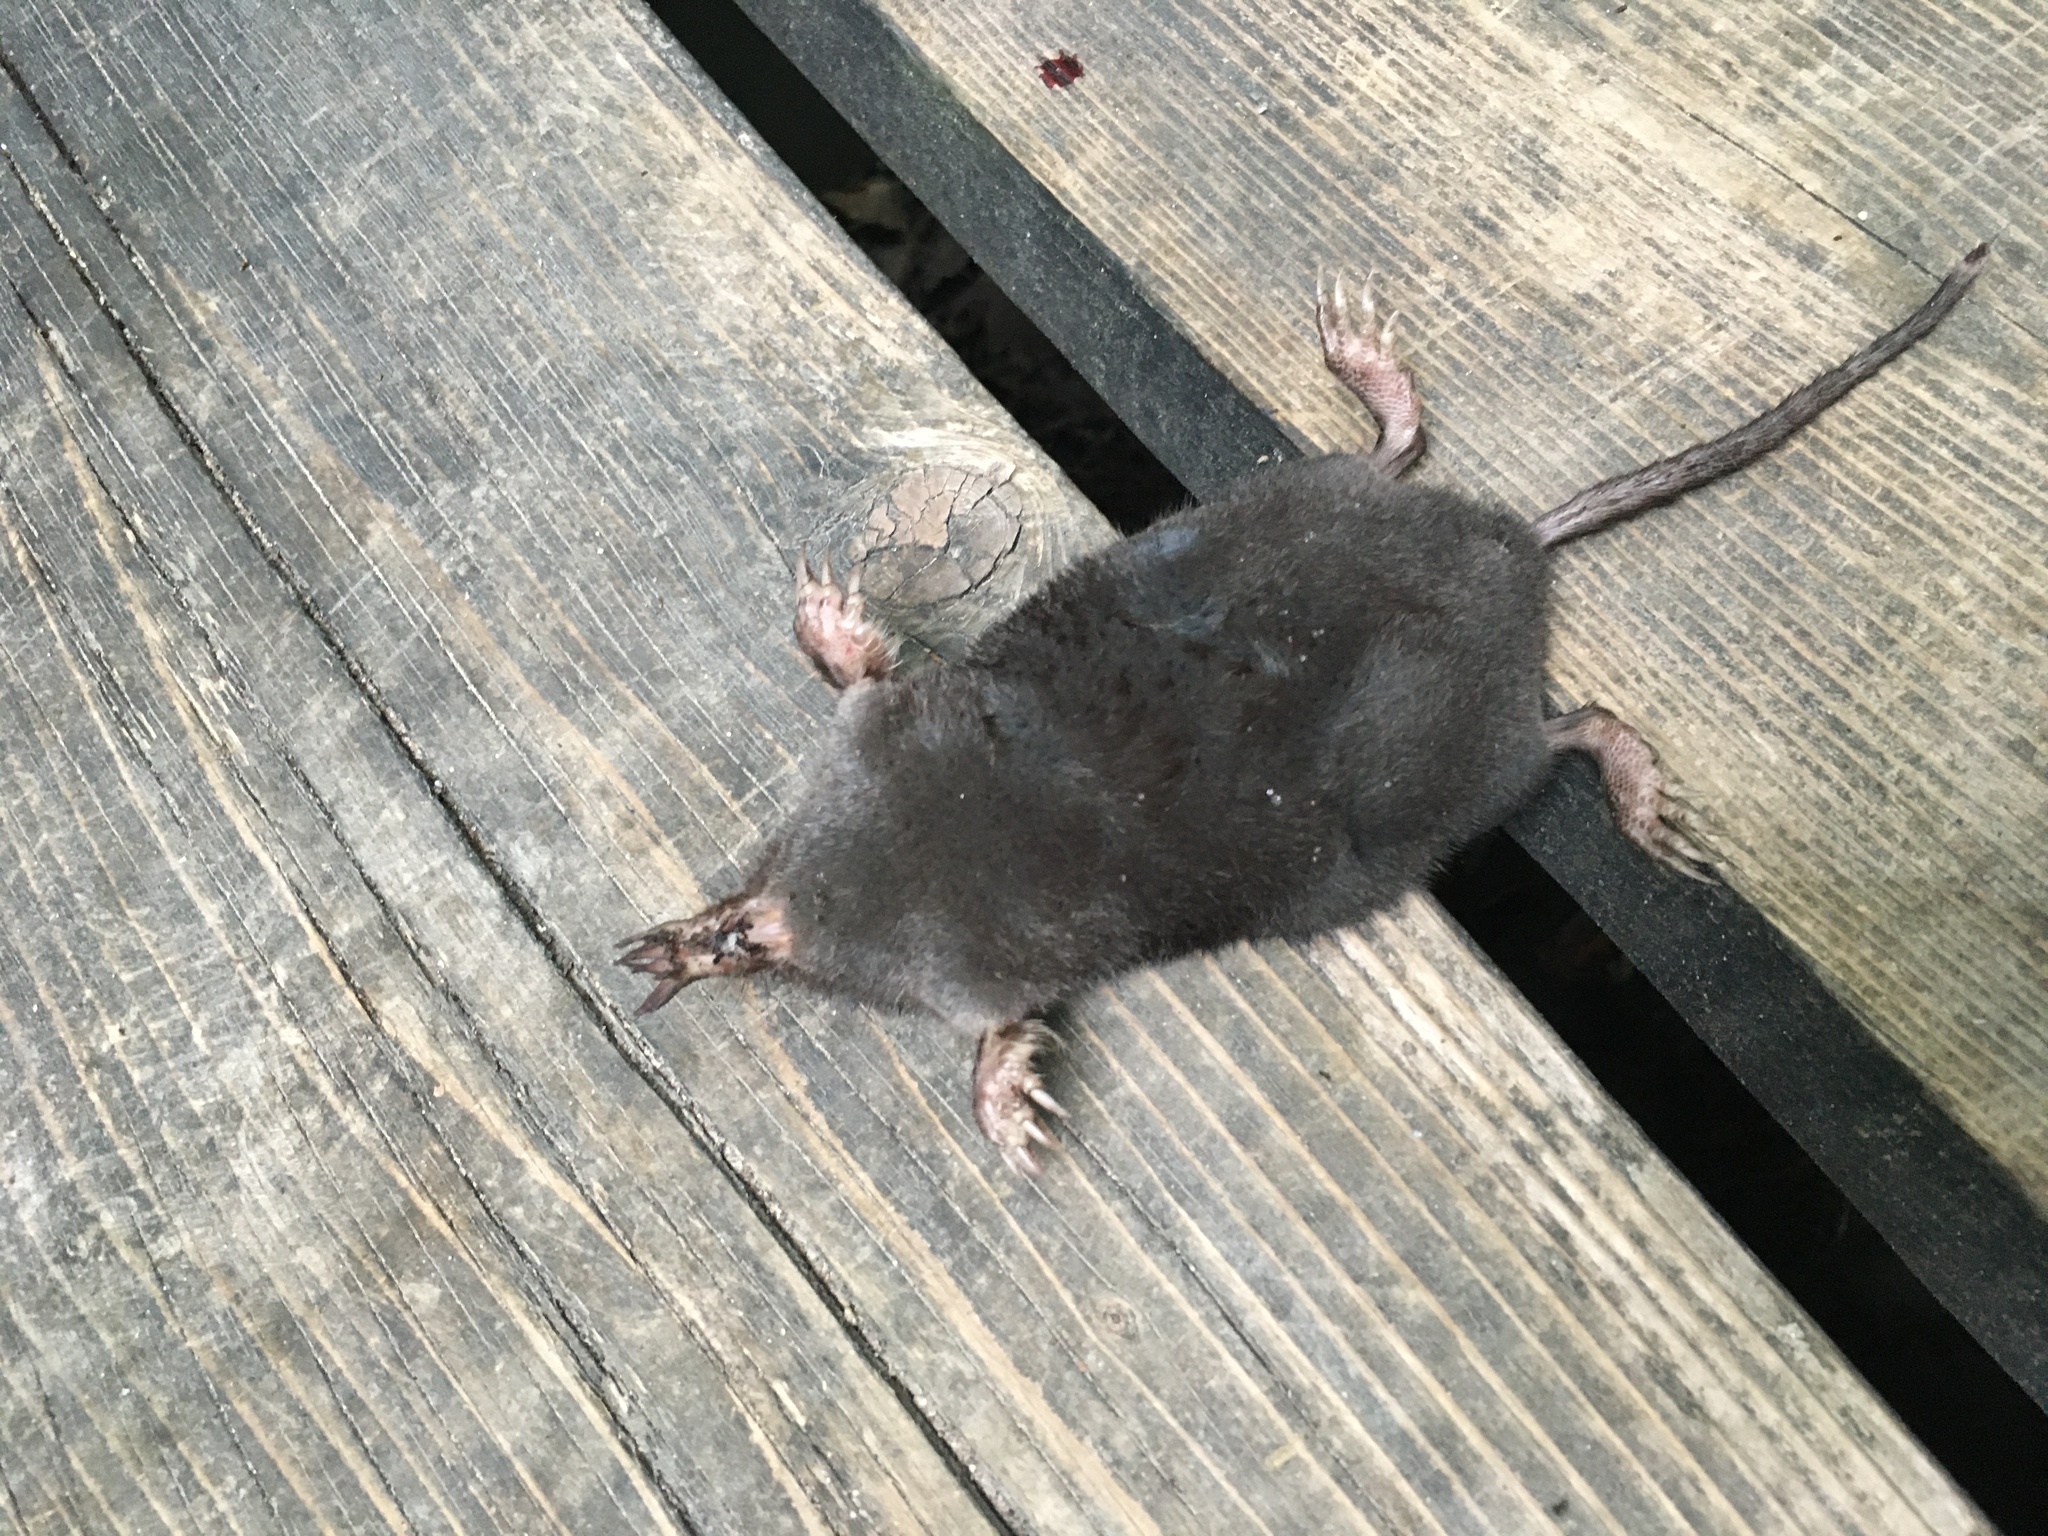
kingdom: Animalia
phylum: Chordata
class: Mammalia
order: Soricomorpha
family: Talpidae
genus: Condylura
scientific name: Condylura cristata
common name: Star-nosed mole
